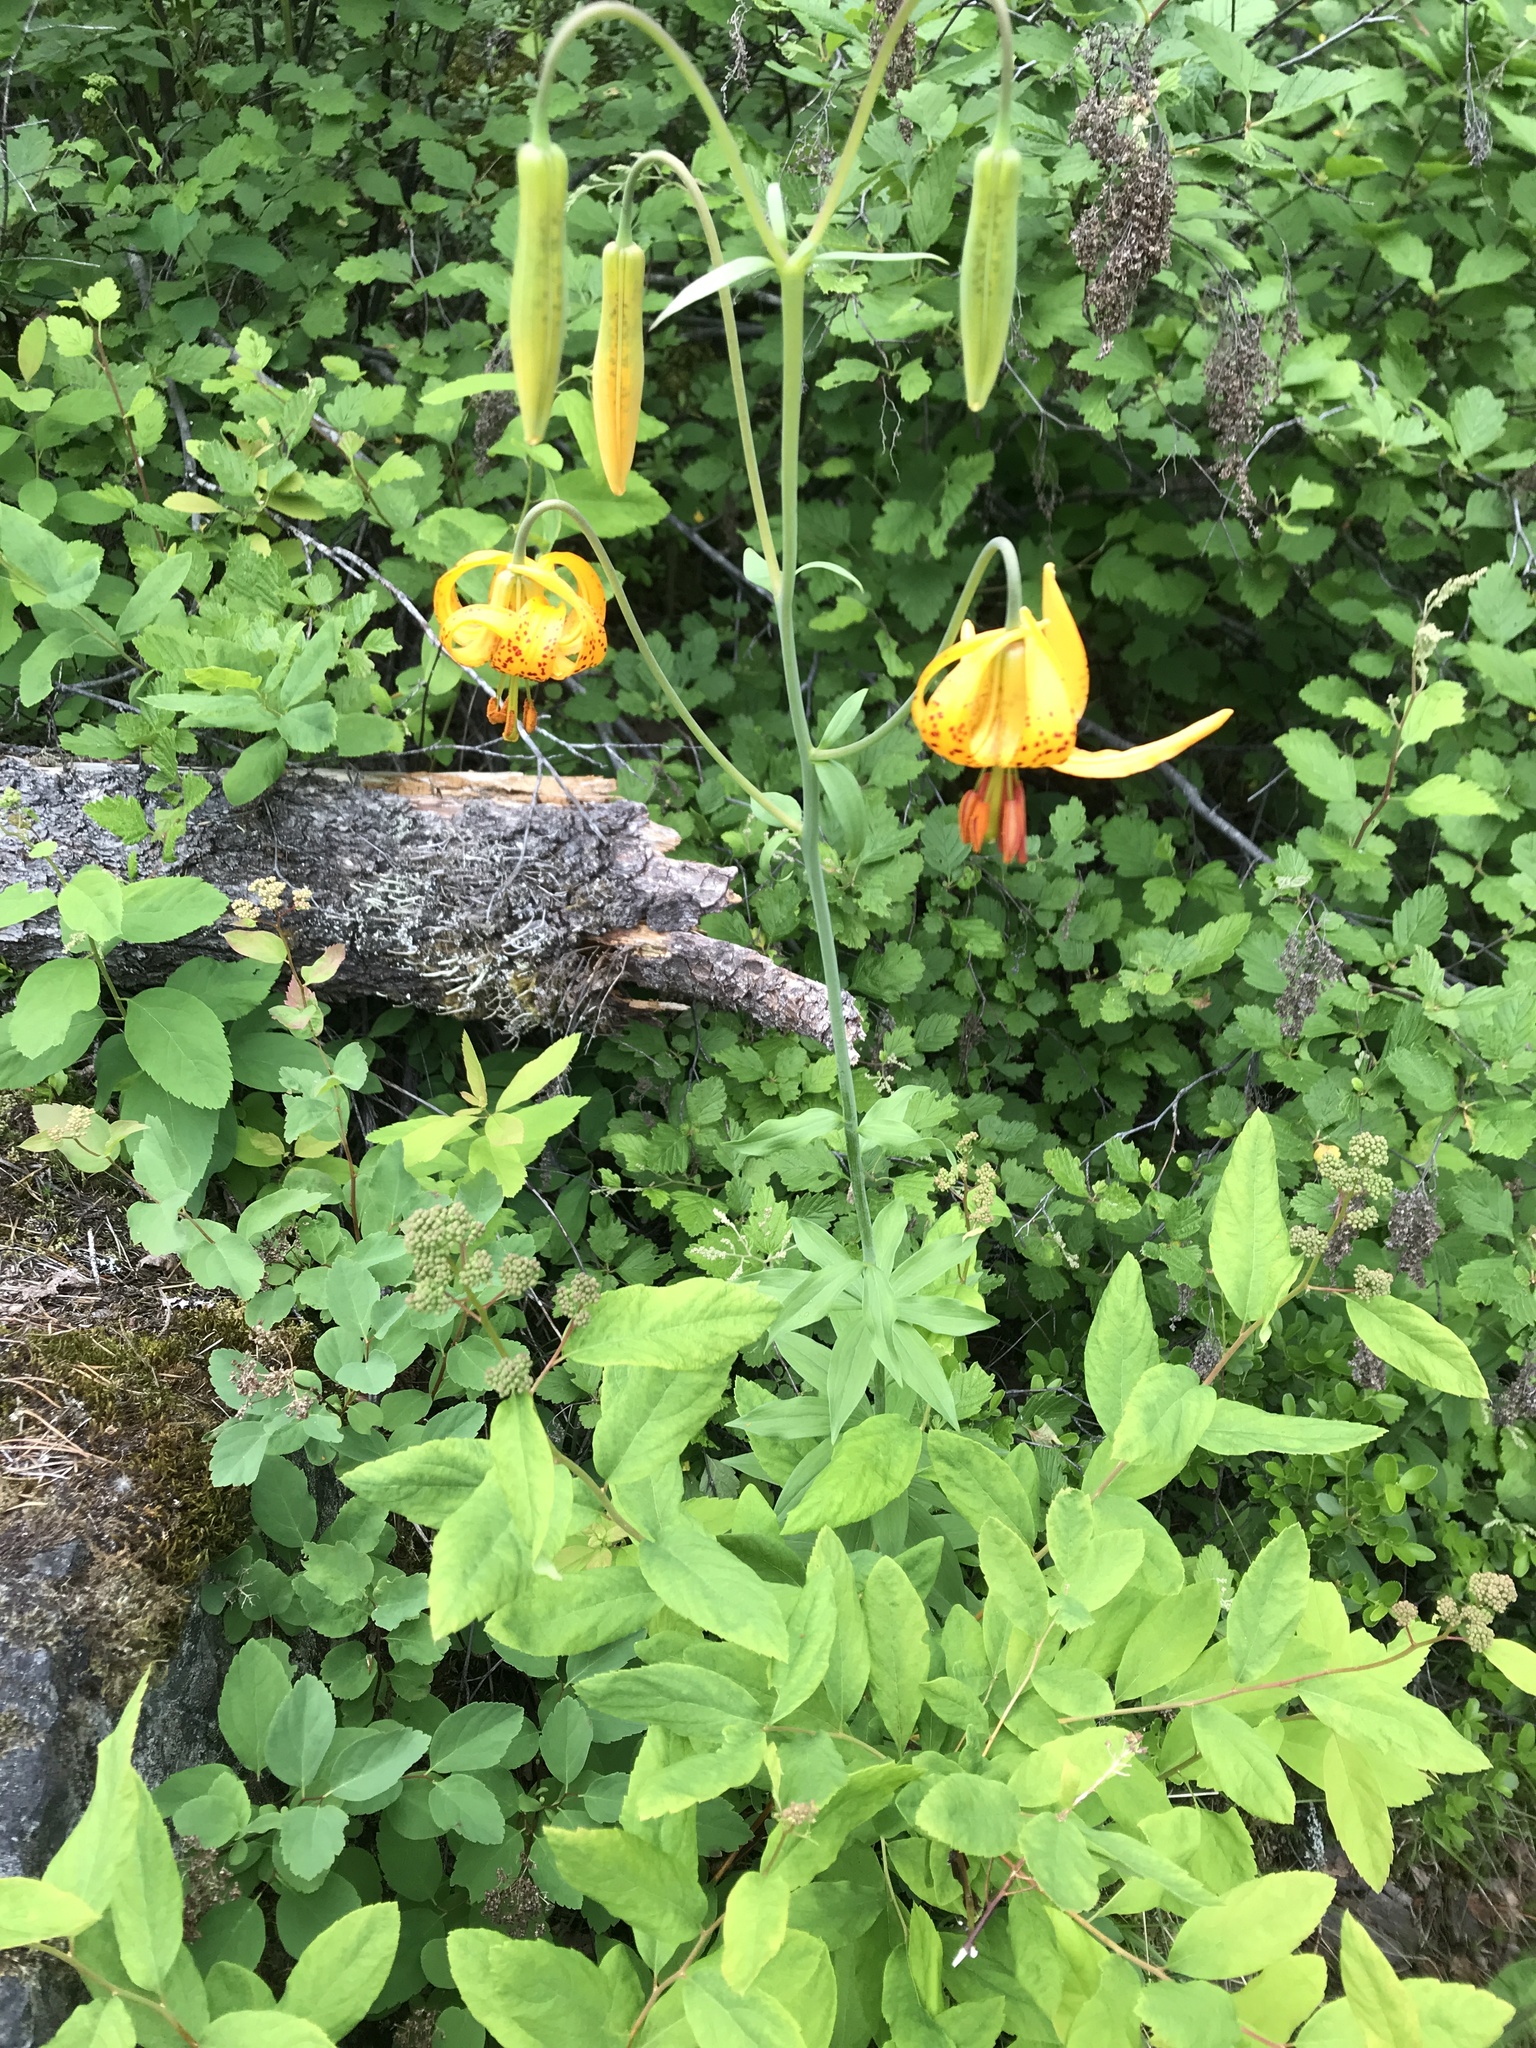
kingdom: Plantae
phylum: Tracheophyta
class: Liliopsida
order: Liliales
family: Liliaceae
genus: Lilium
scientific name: Lilium columbianum
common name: Columbia lily
